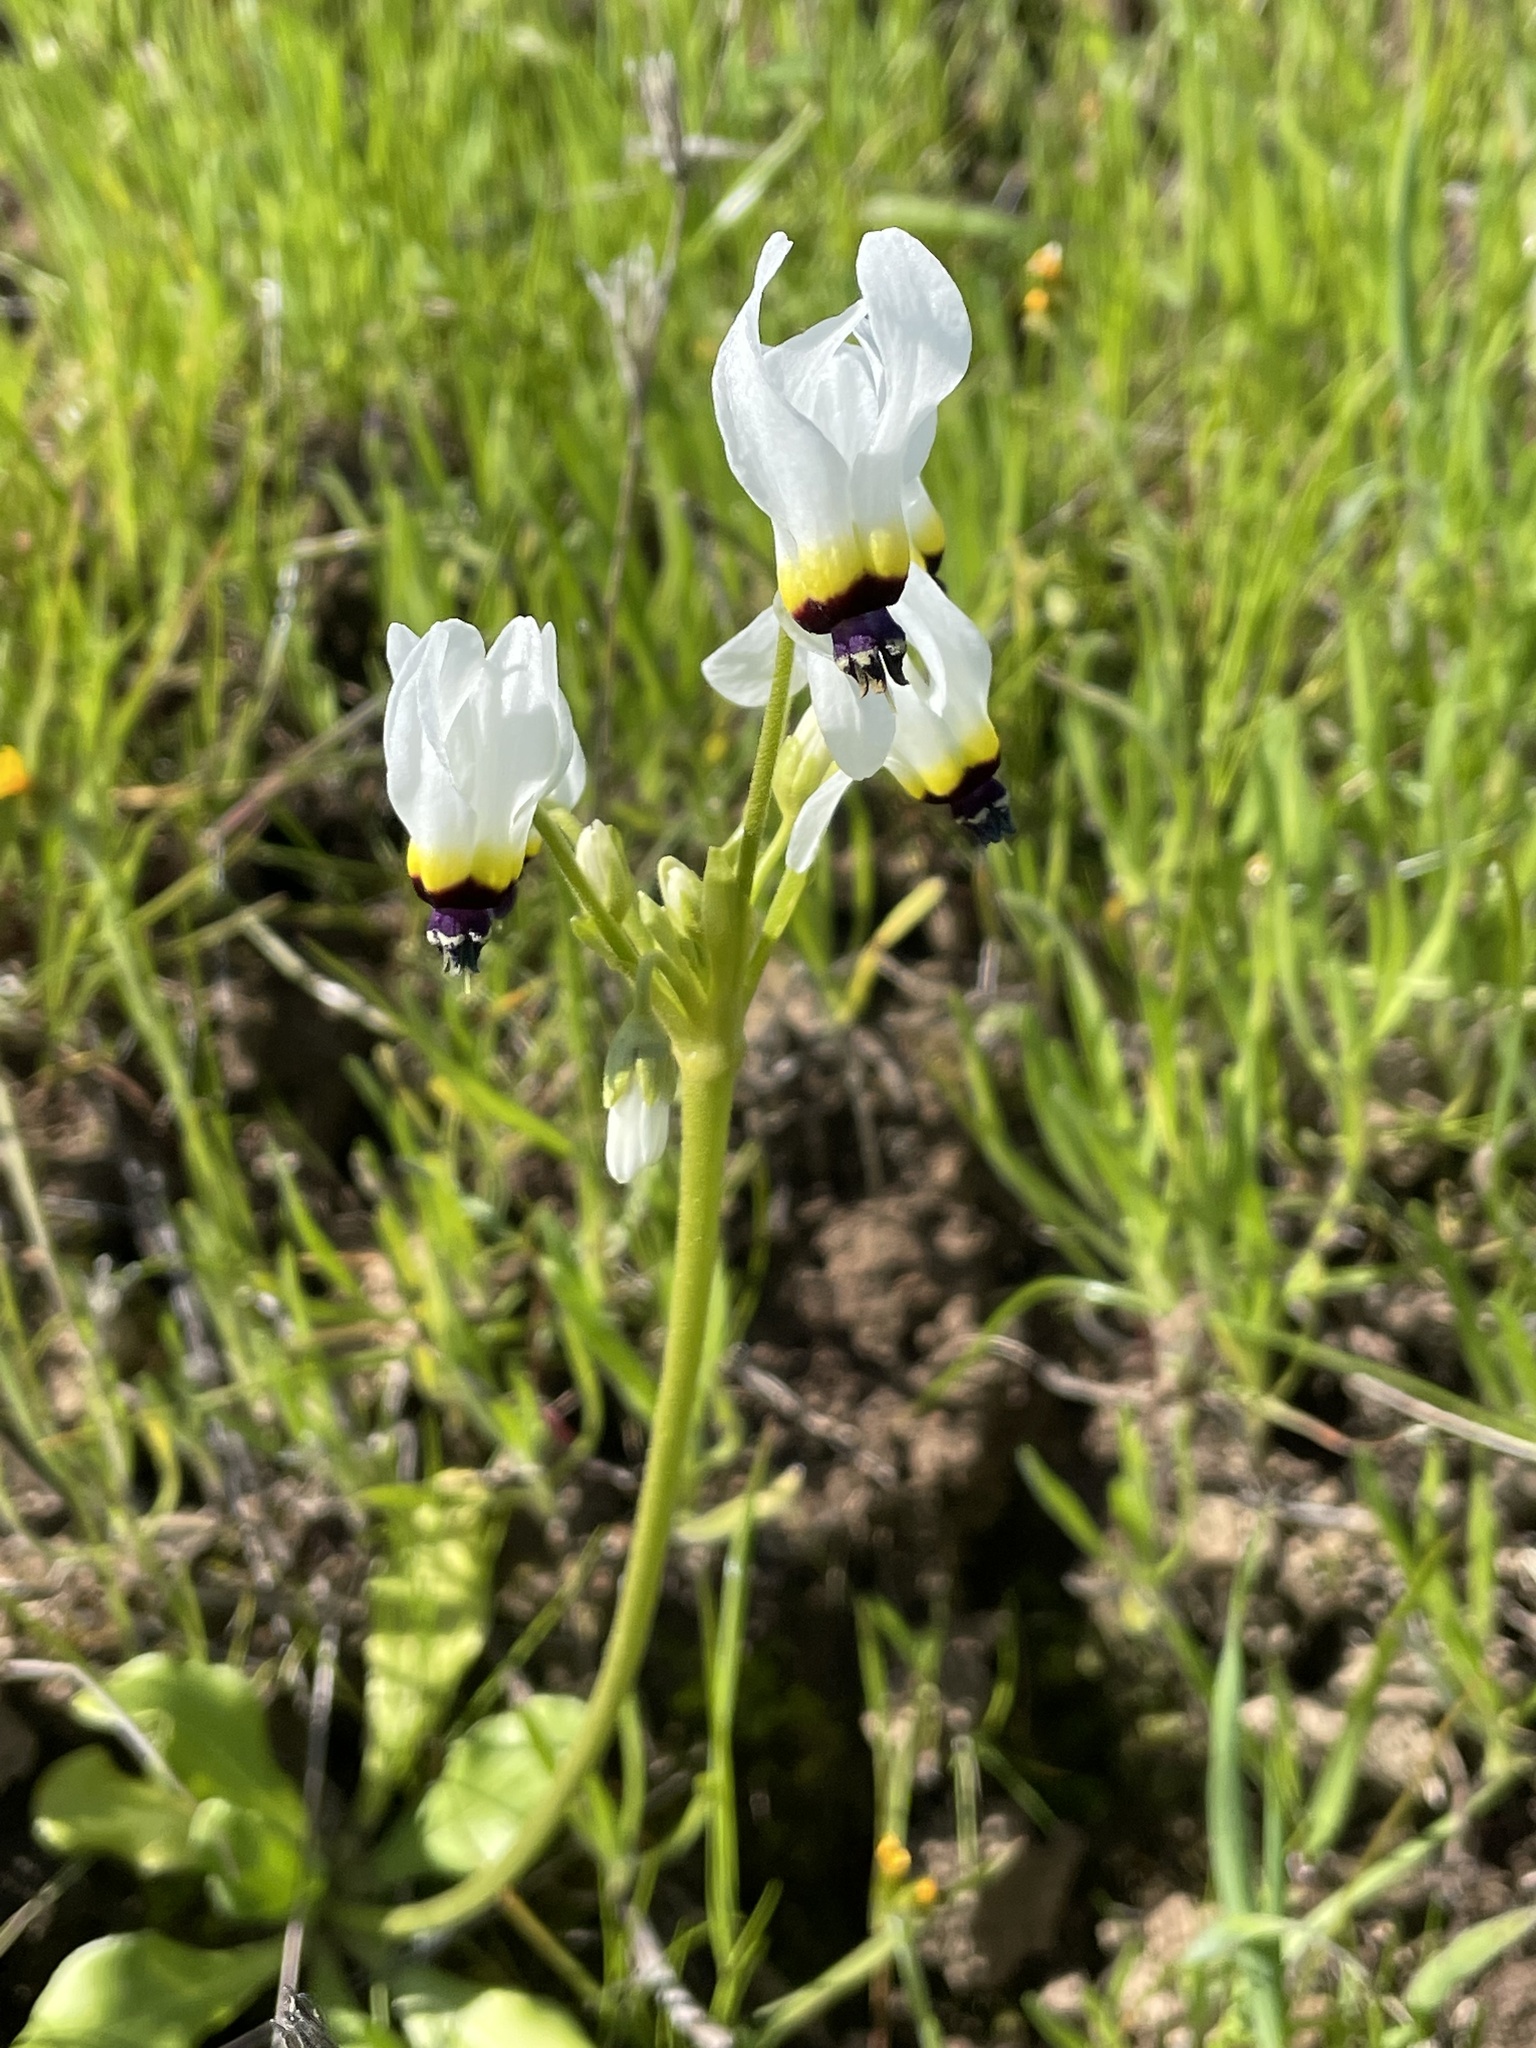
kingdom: Plantae
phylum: Tracheophyta
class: Magnoliopsida
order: Ericales
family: Primulaceae
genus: Dodecatheon
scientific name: Dodecatheon clevelandii
